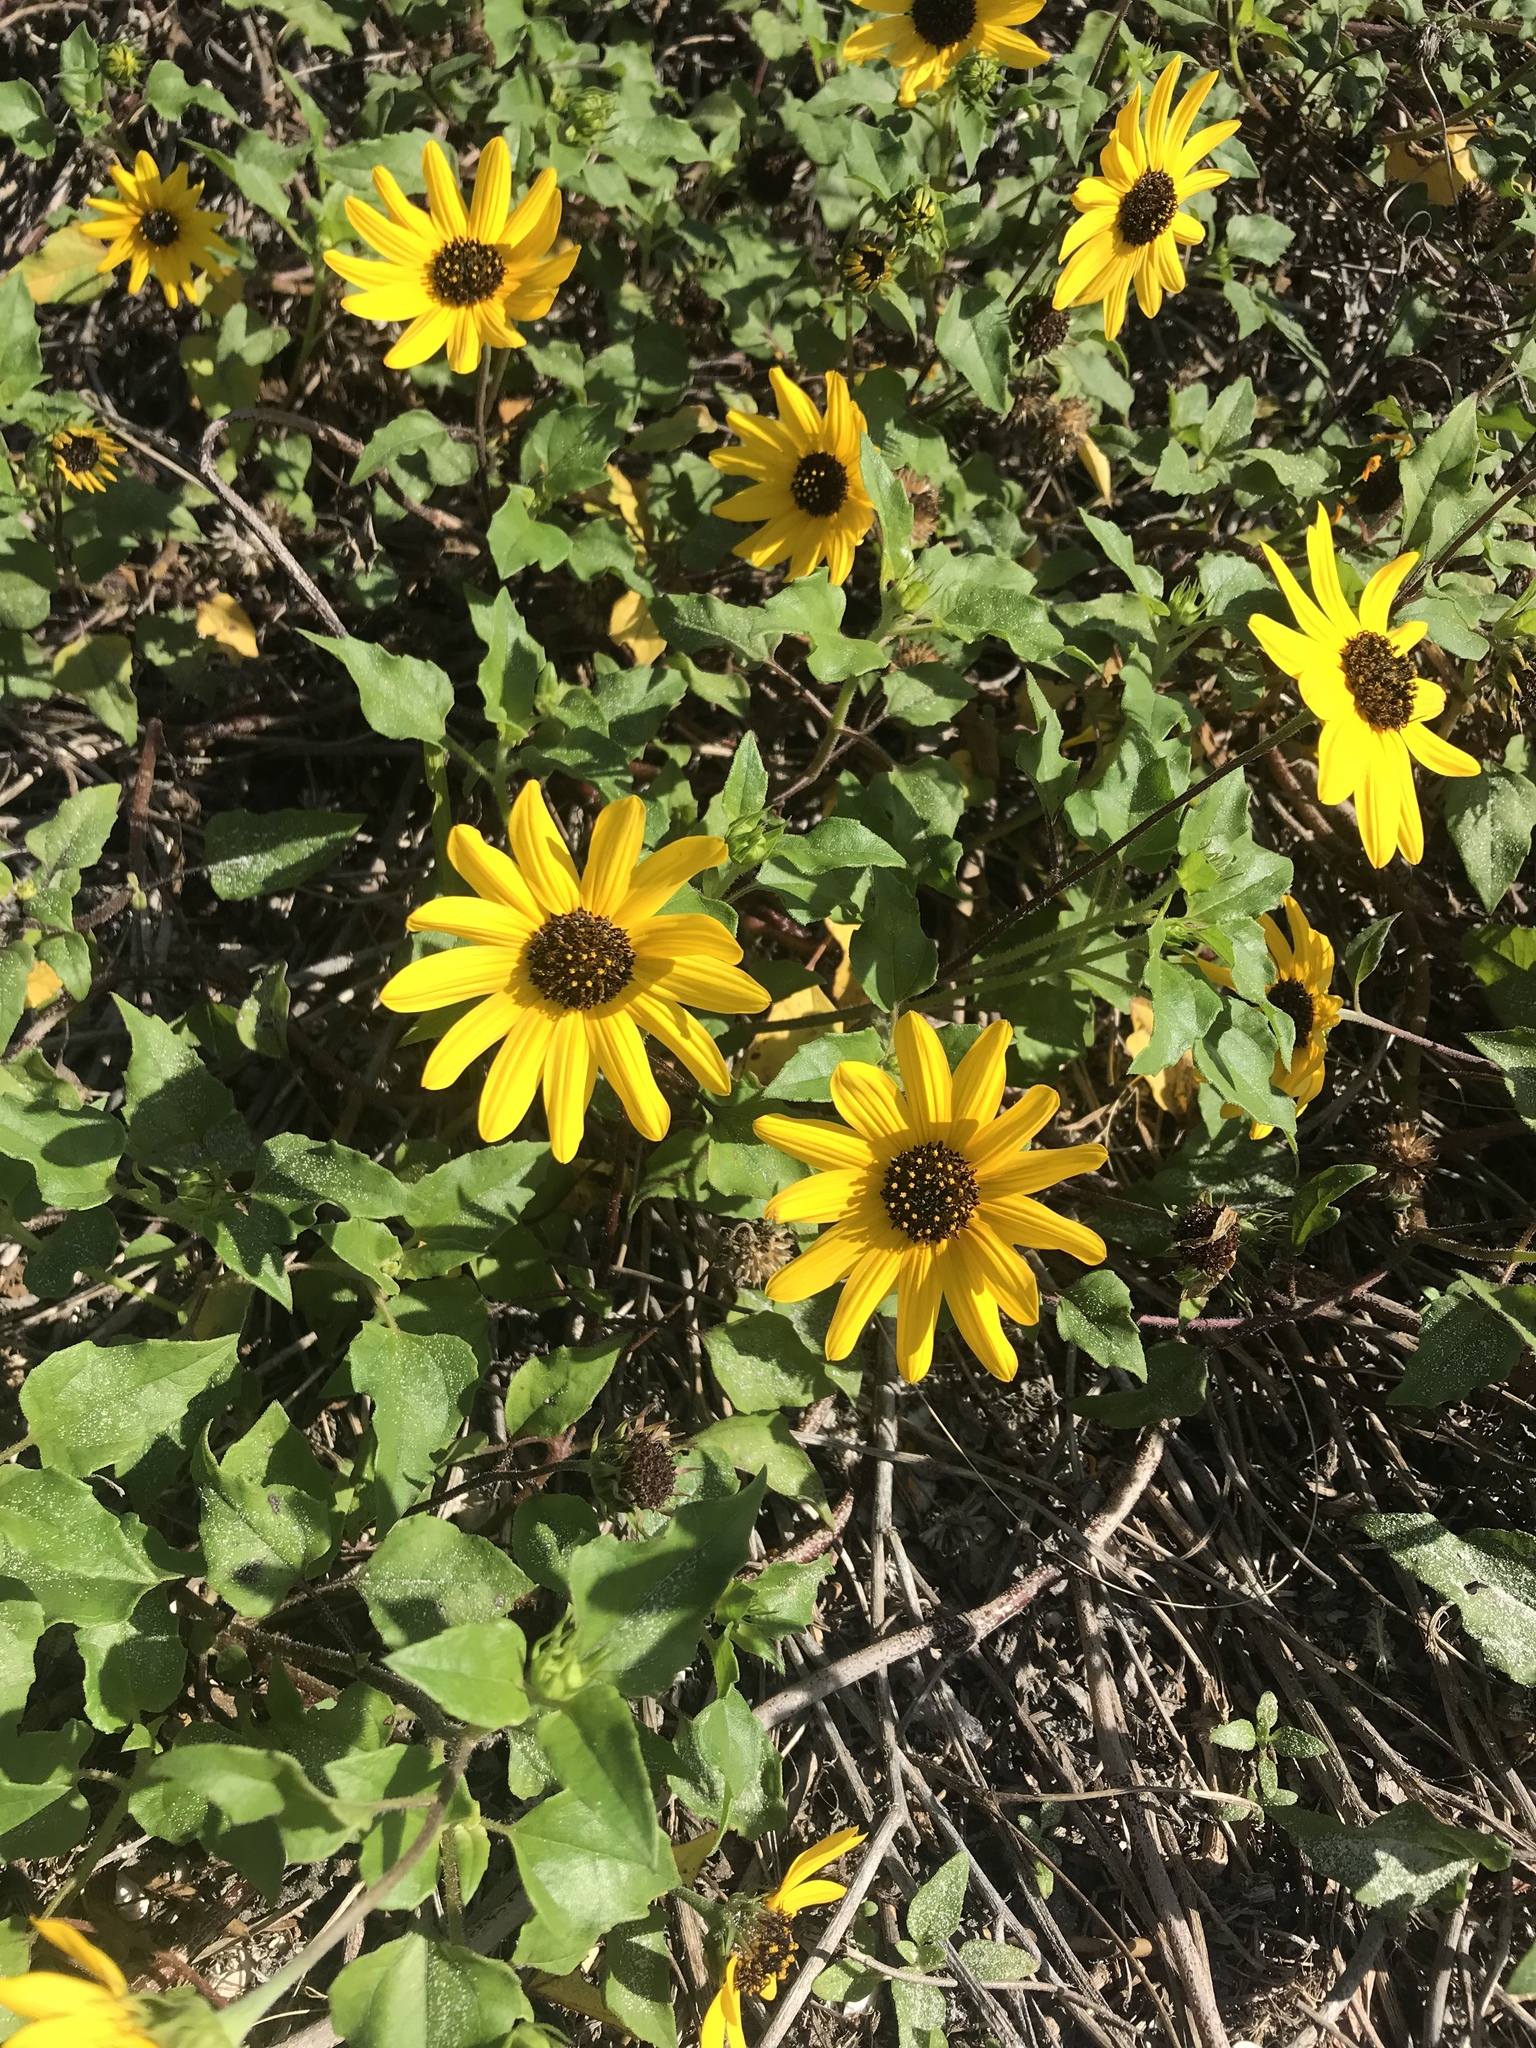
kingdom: Plantae
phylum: Tracheophyta
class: Magnoliopsida
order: Asterales
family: Asteraceae
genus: Helianthus
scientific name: Helianthus debilis
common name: Weak sunflower
